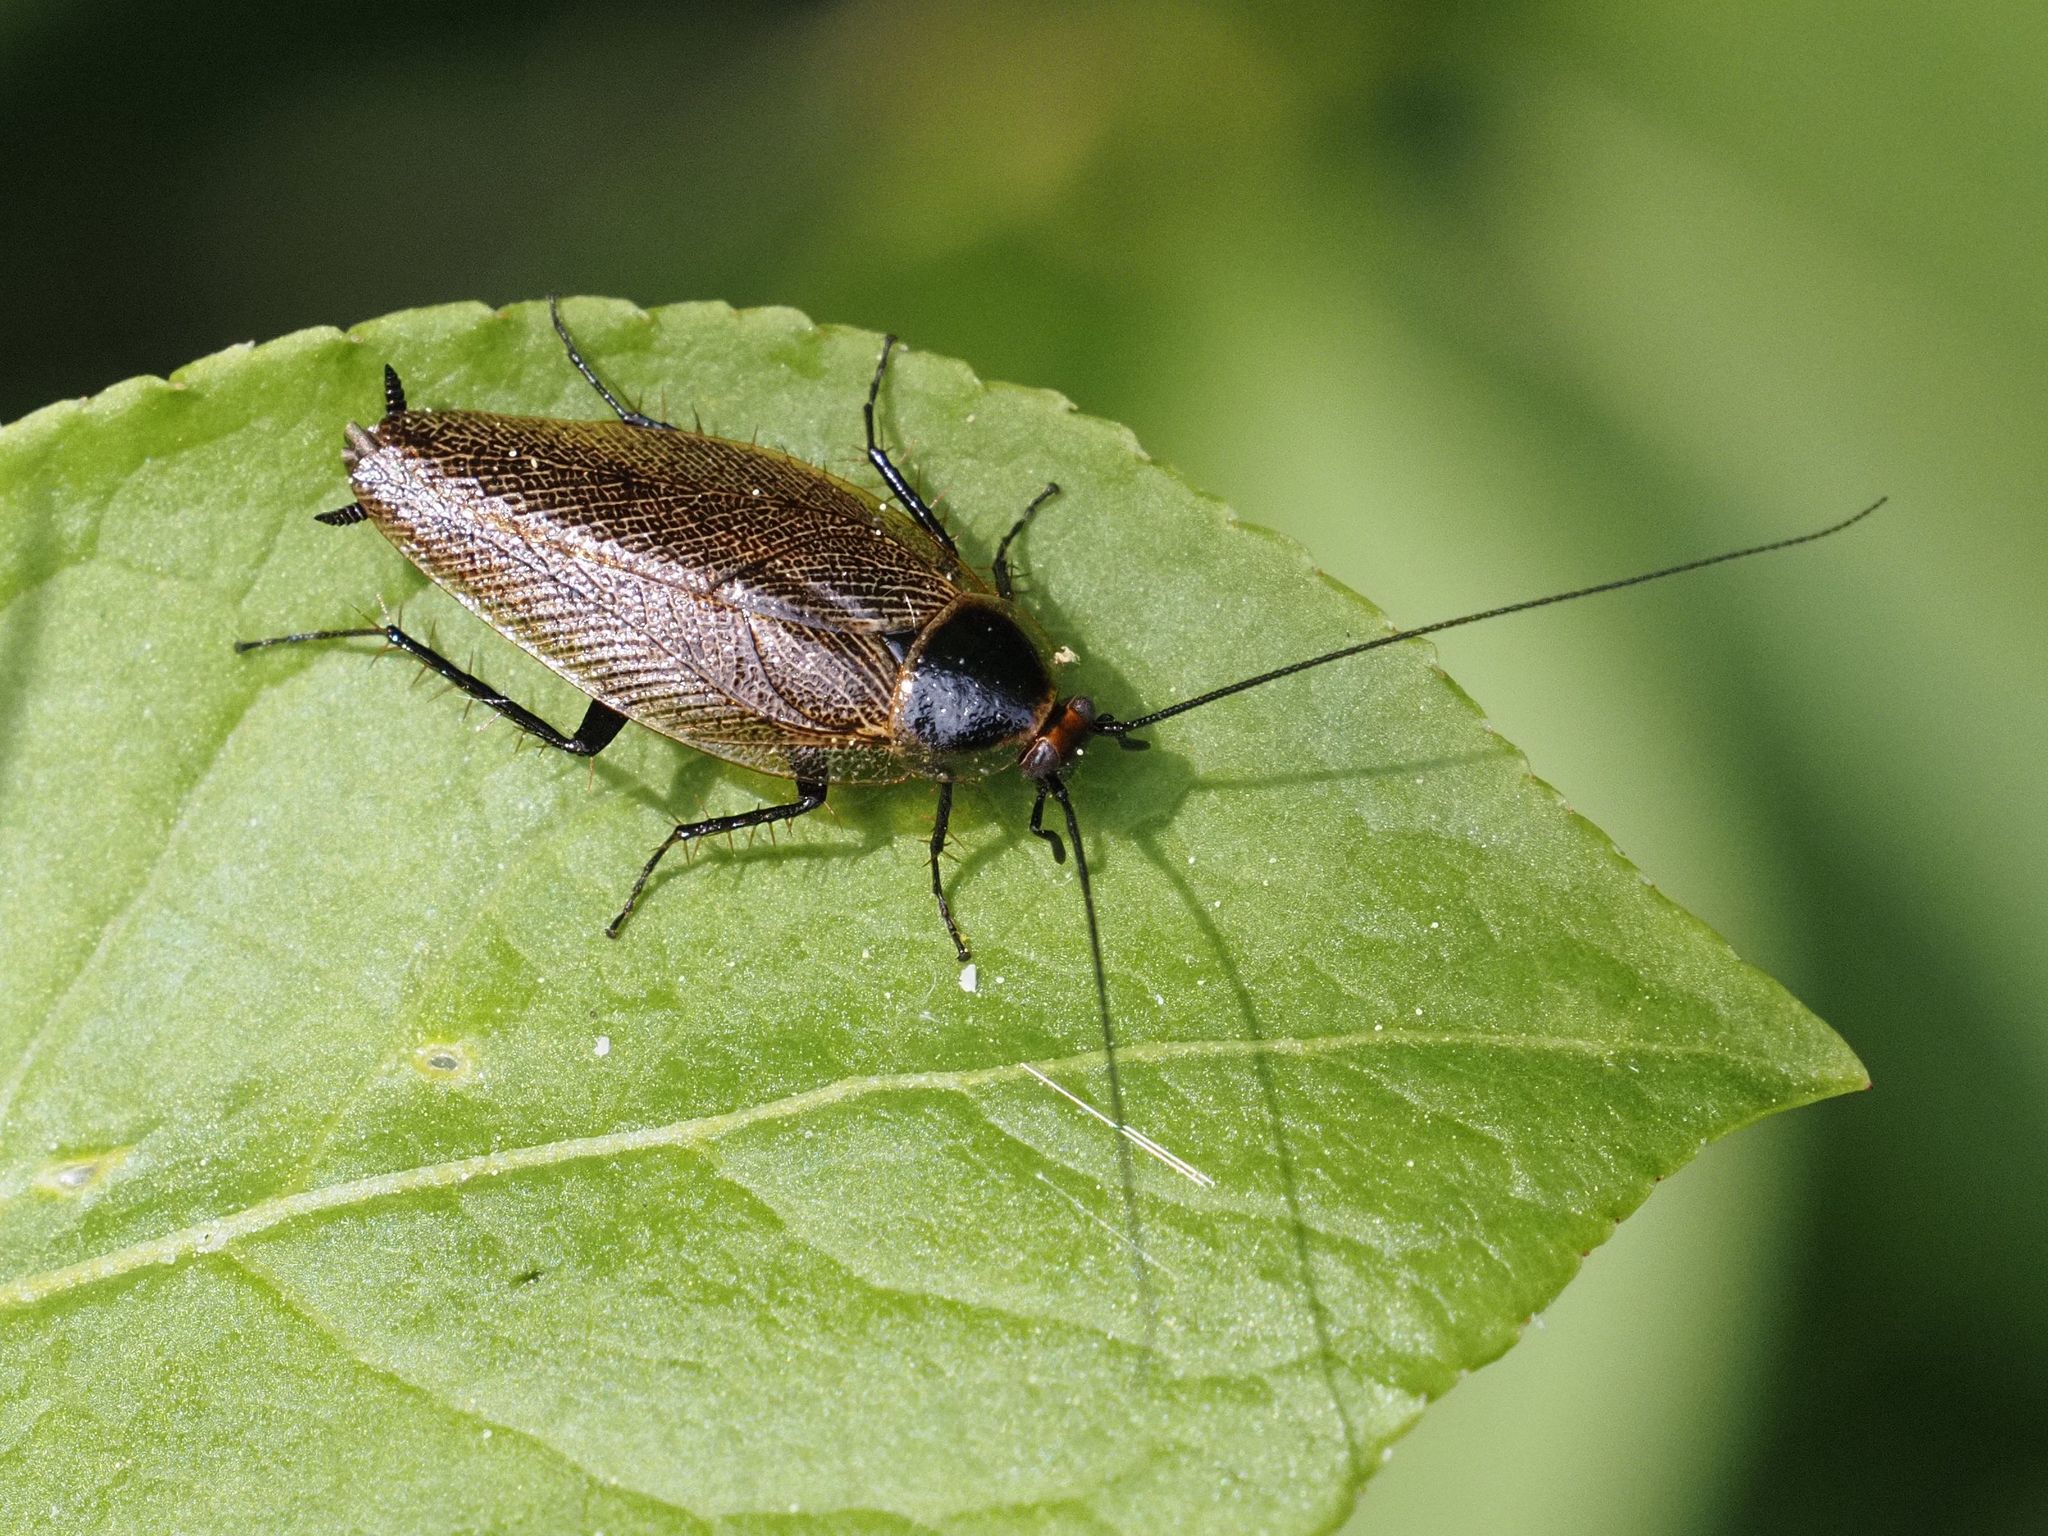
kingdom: Animalia
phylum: Arthropoda
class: Insecta
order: Blattodea
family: Ectobiidae
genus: Ectobius
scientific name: Ectobius erythronotus
